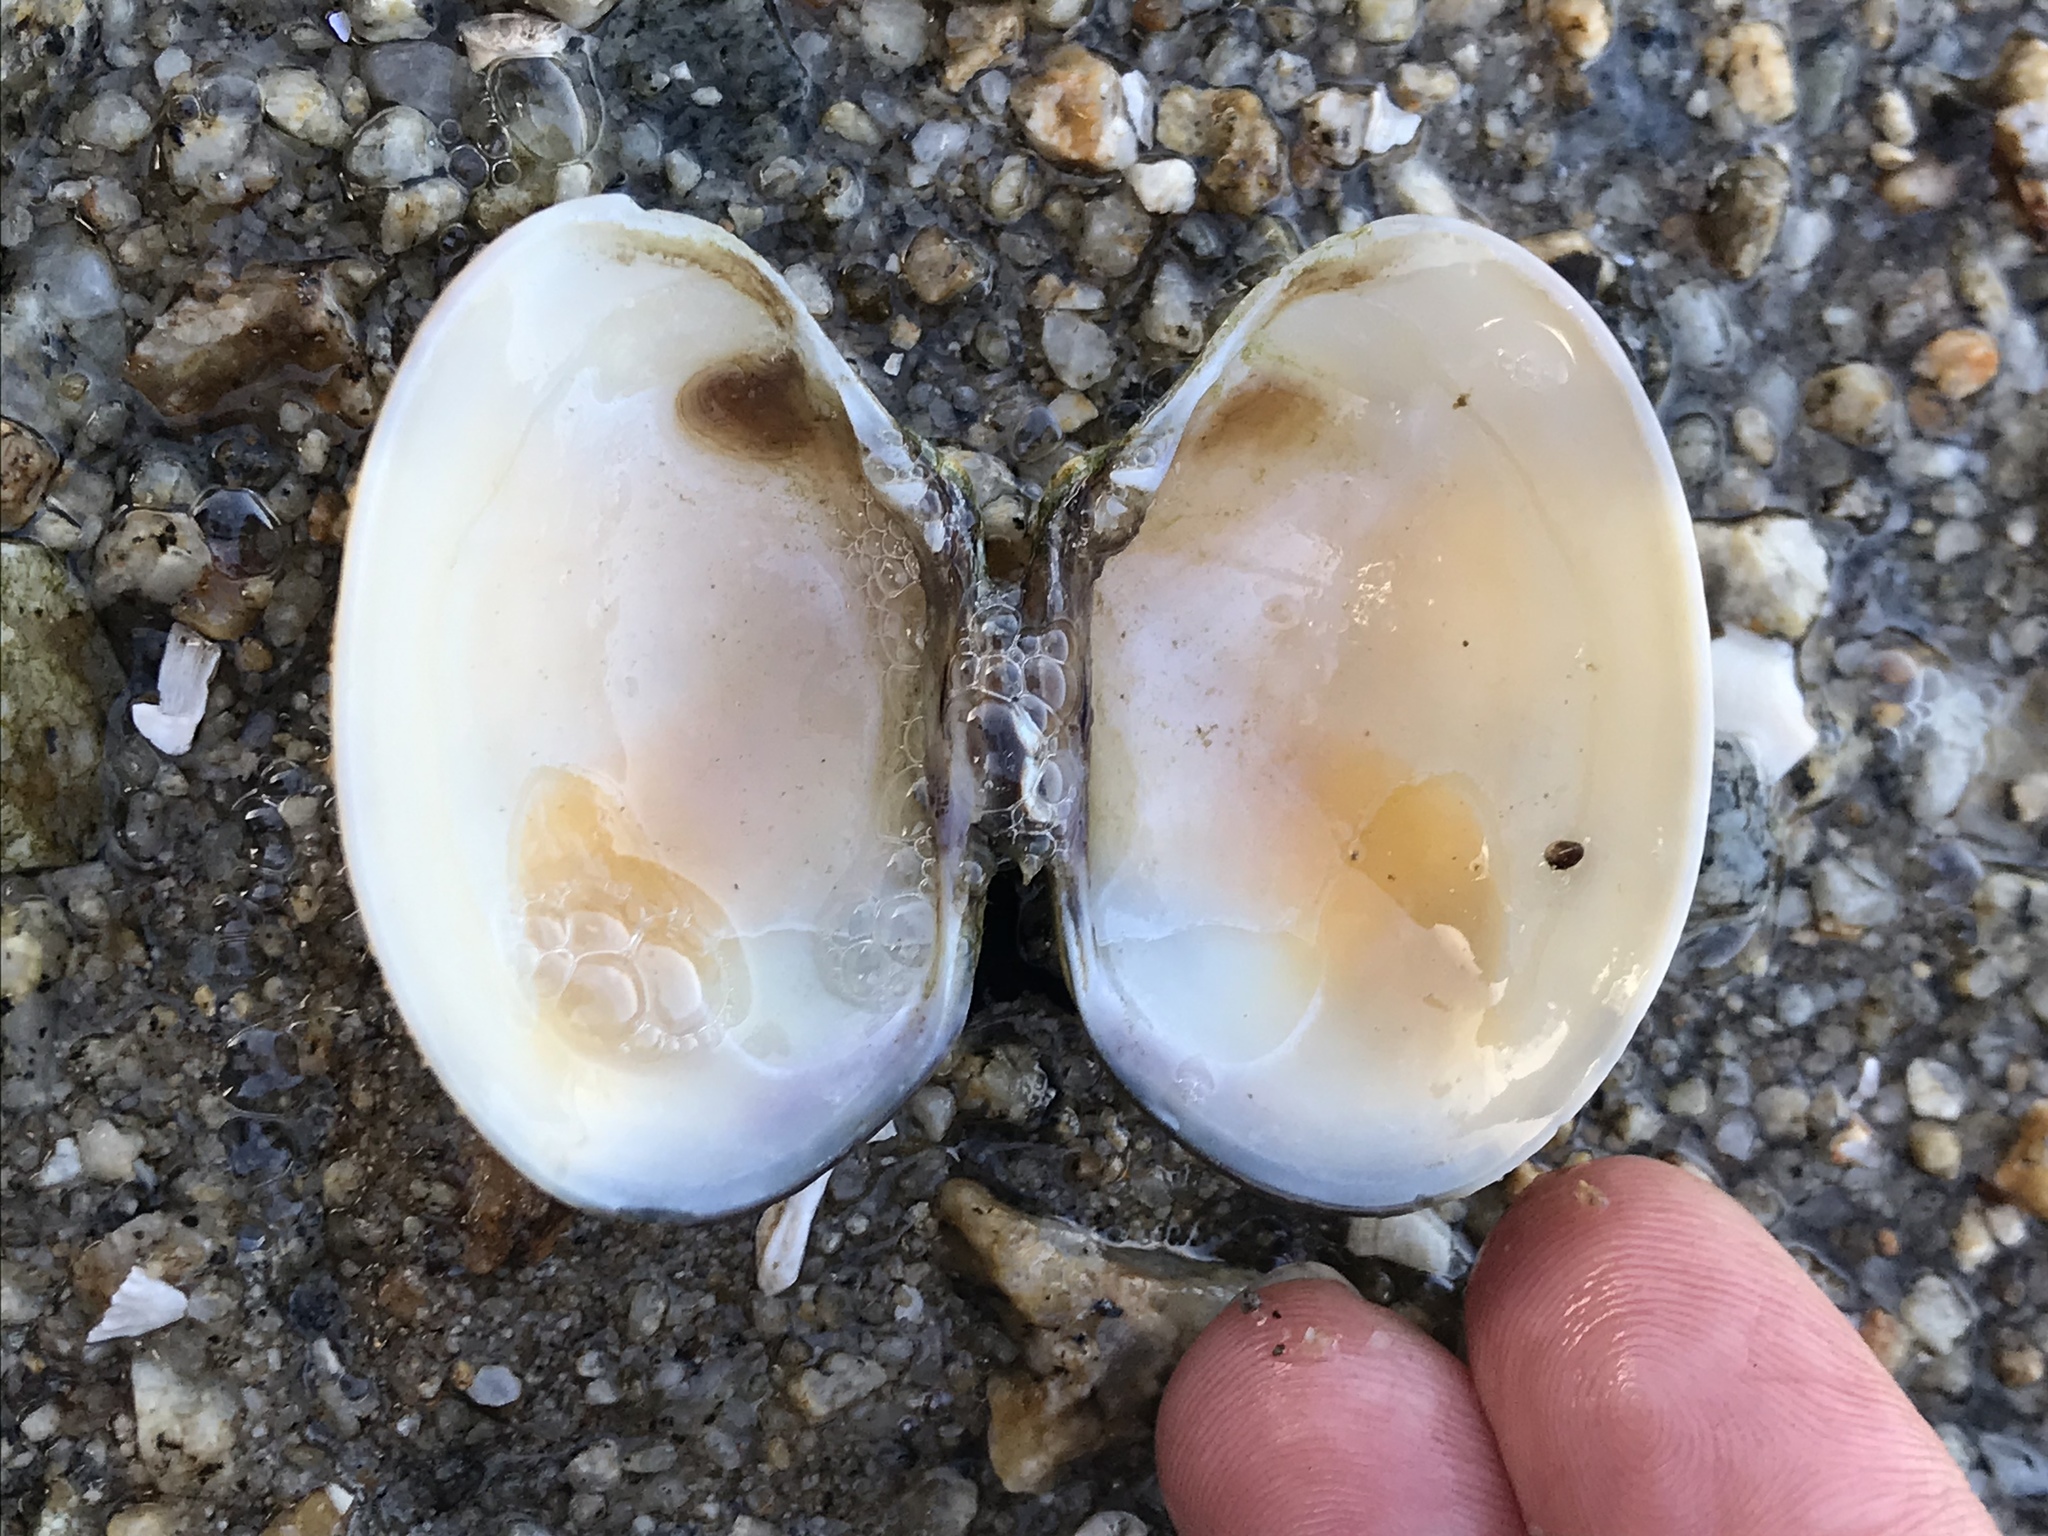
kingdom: Animalia
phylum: Mollusca
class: Bivalvia
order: Venerida
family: Veneridae
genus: Ruditapes
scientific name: Ruditapes philippinarum
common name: Manila clam
